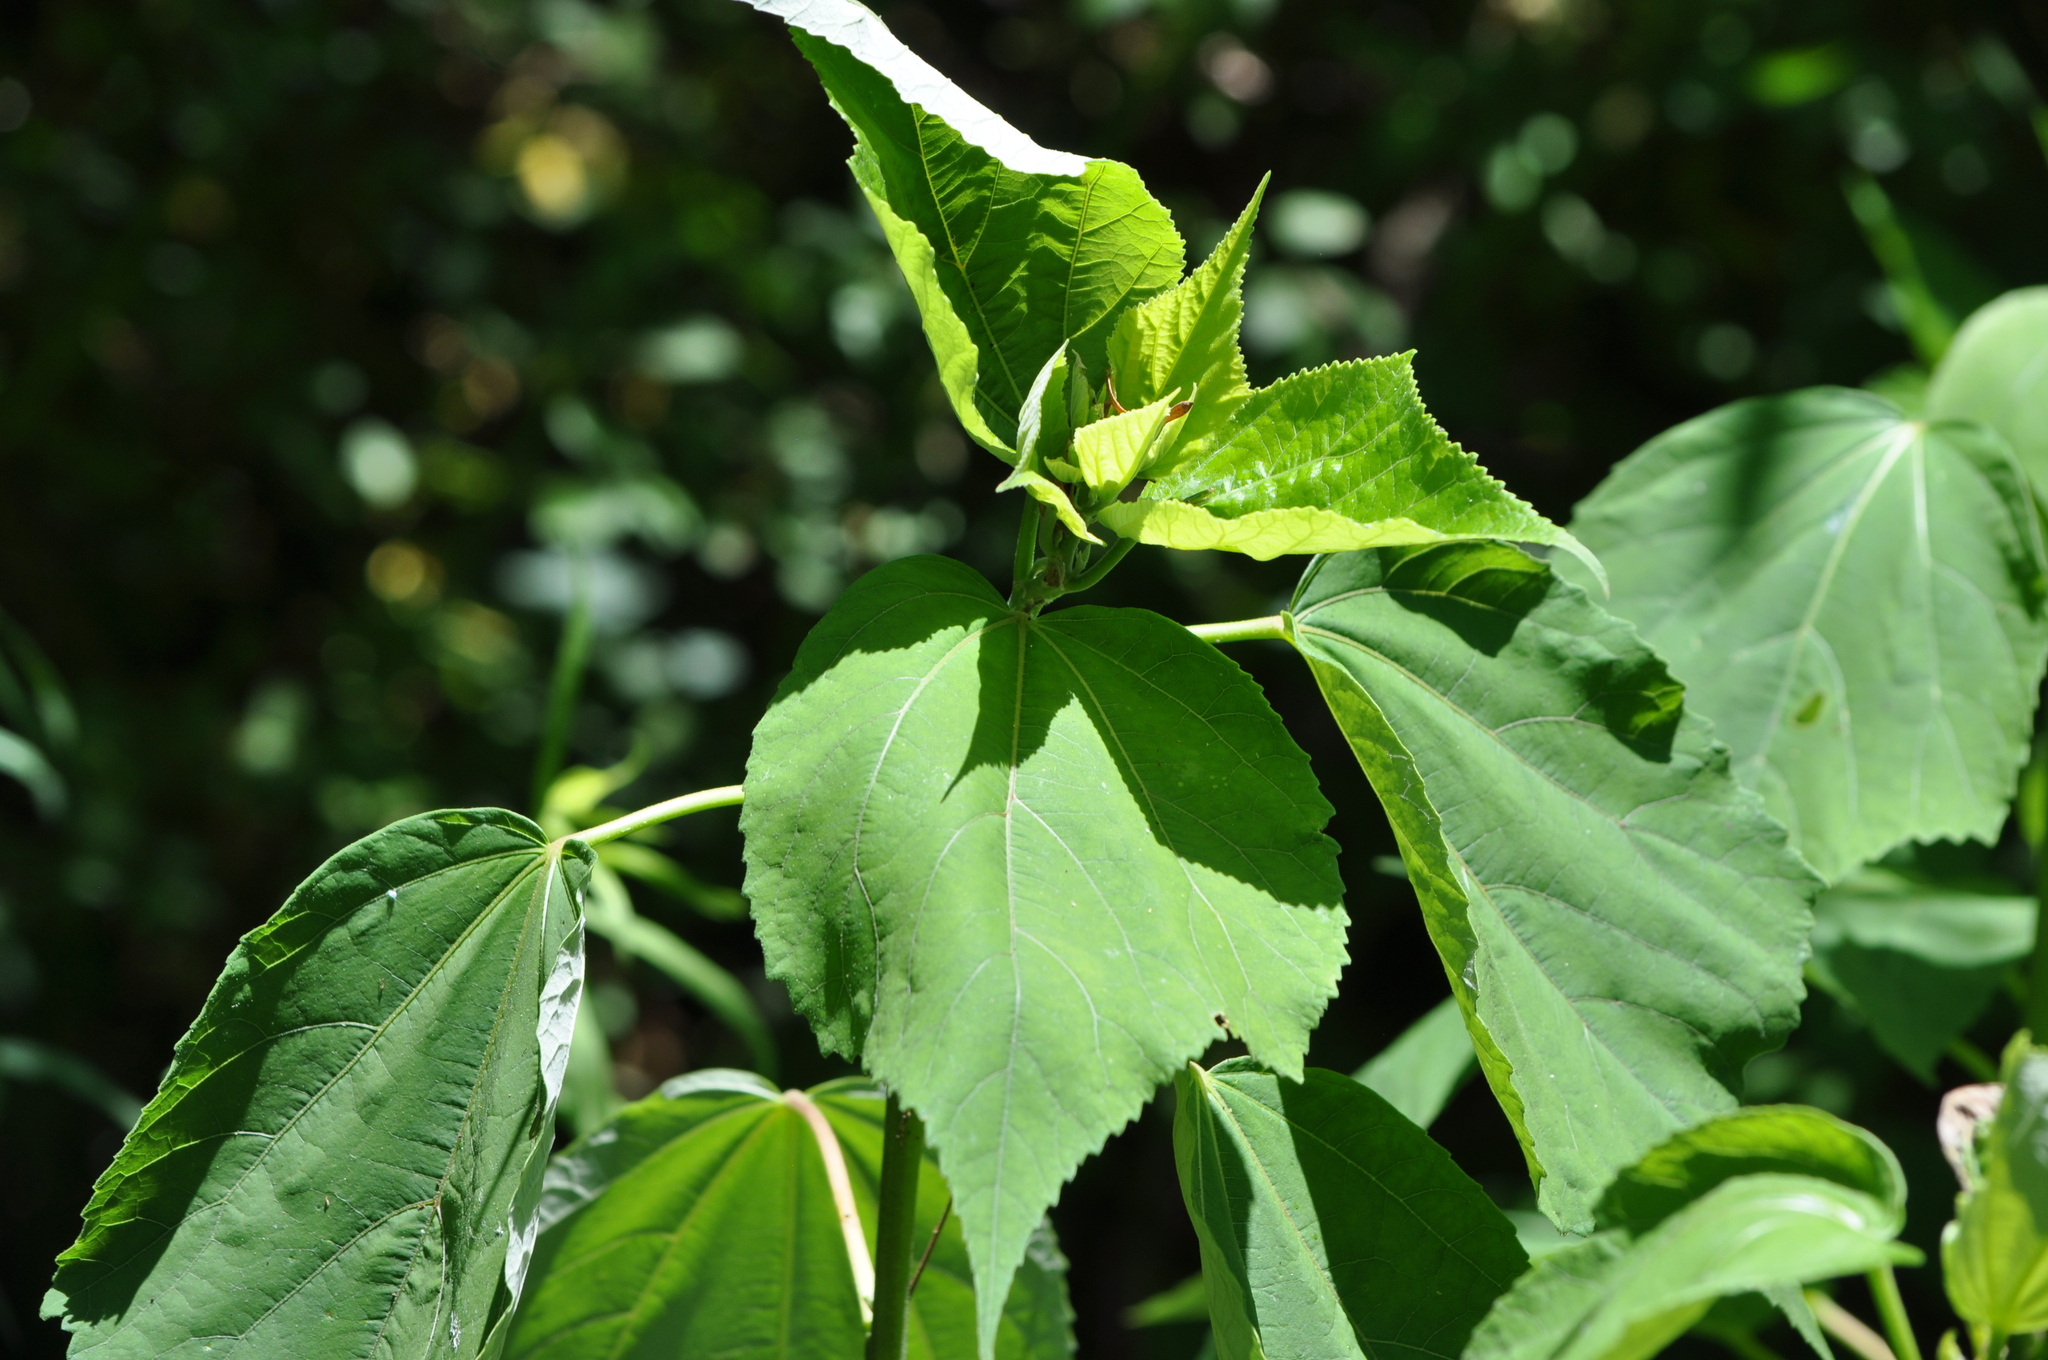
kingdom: Plantae
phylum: Tracheophyta
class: Magnoliopsida
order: Malvales
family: Malvaceae
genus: Hibiscus
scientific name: Hibiscus moscheutos
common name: Common rose-mallow
